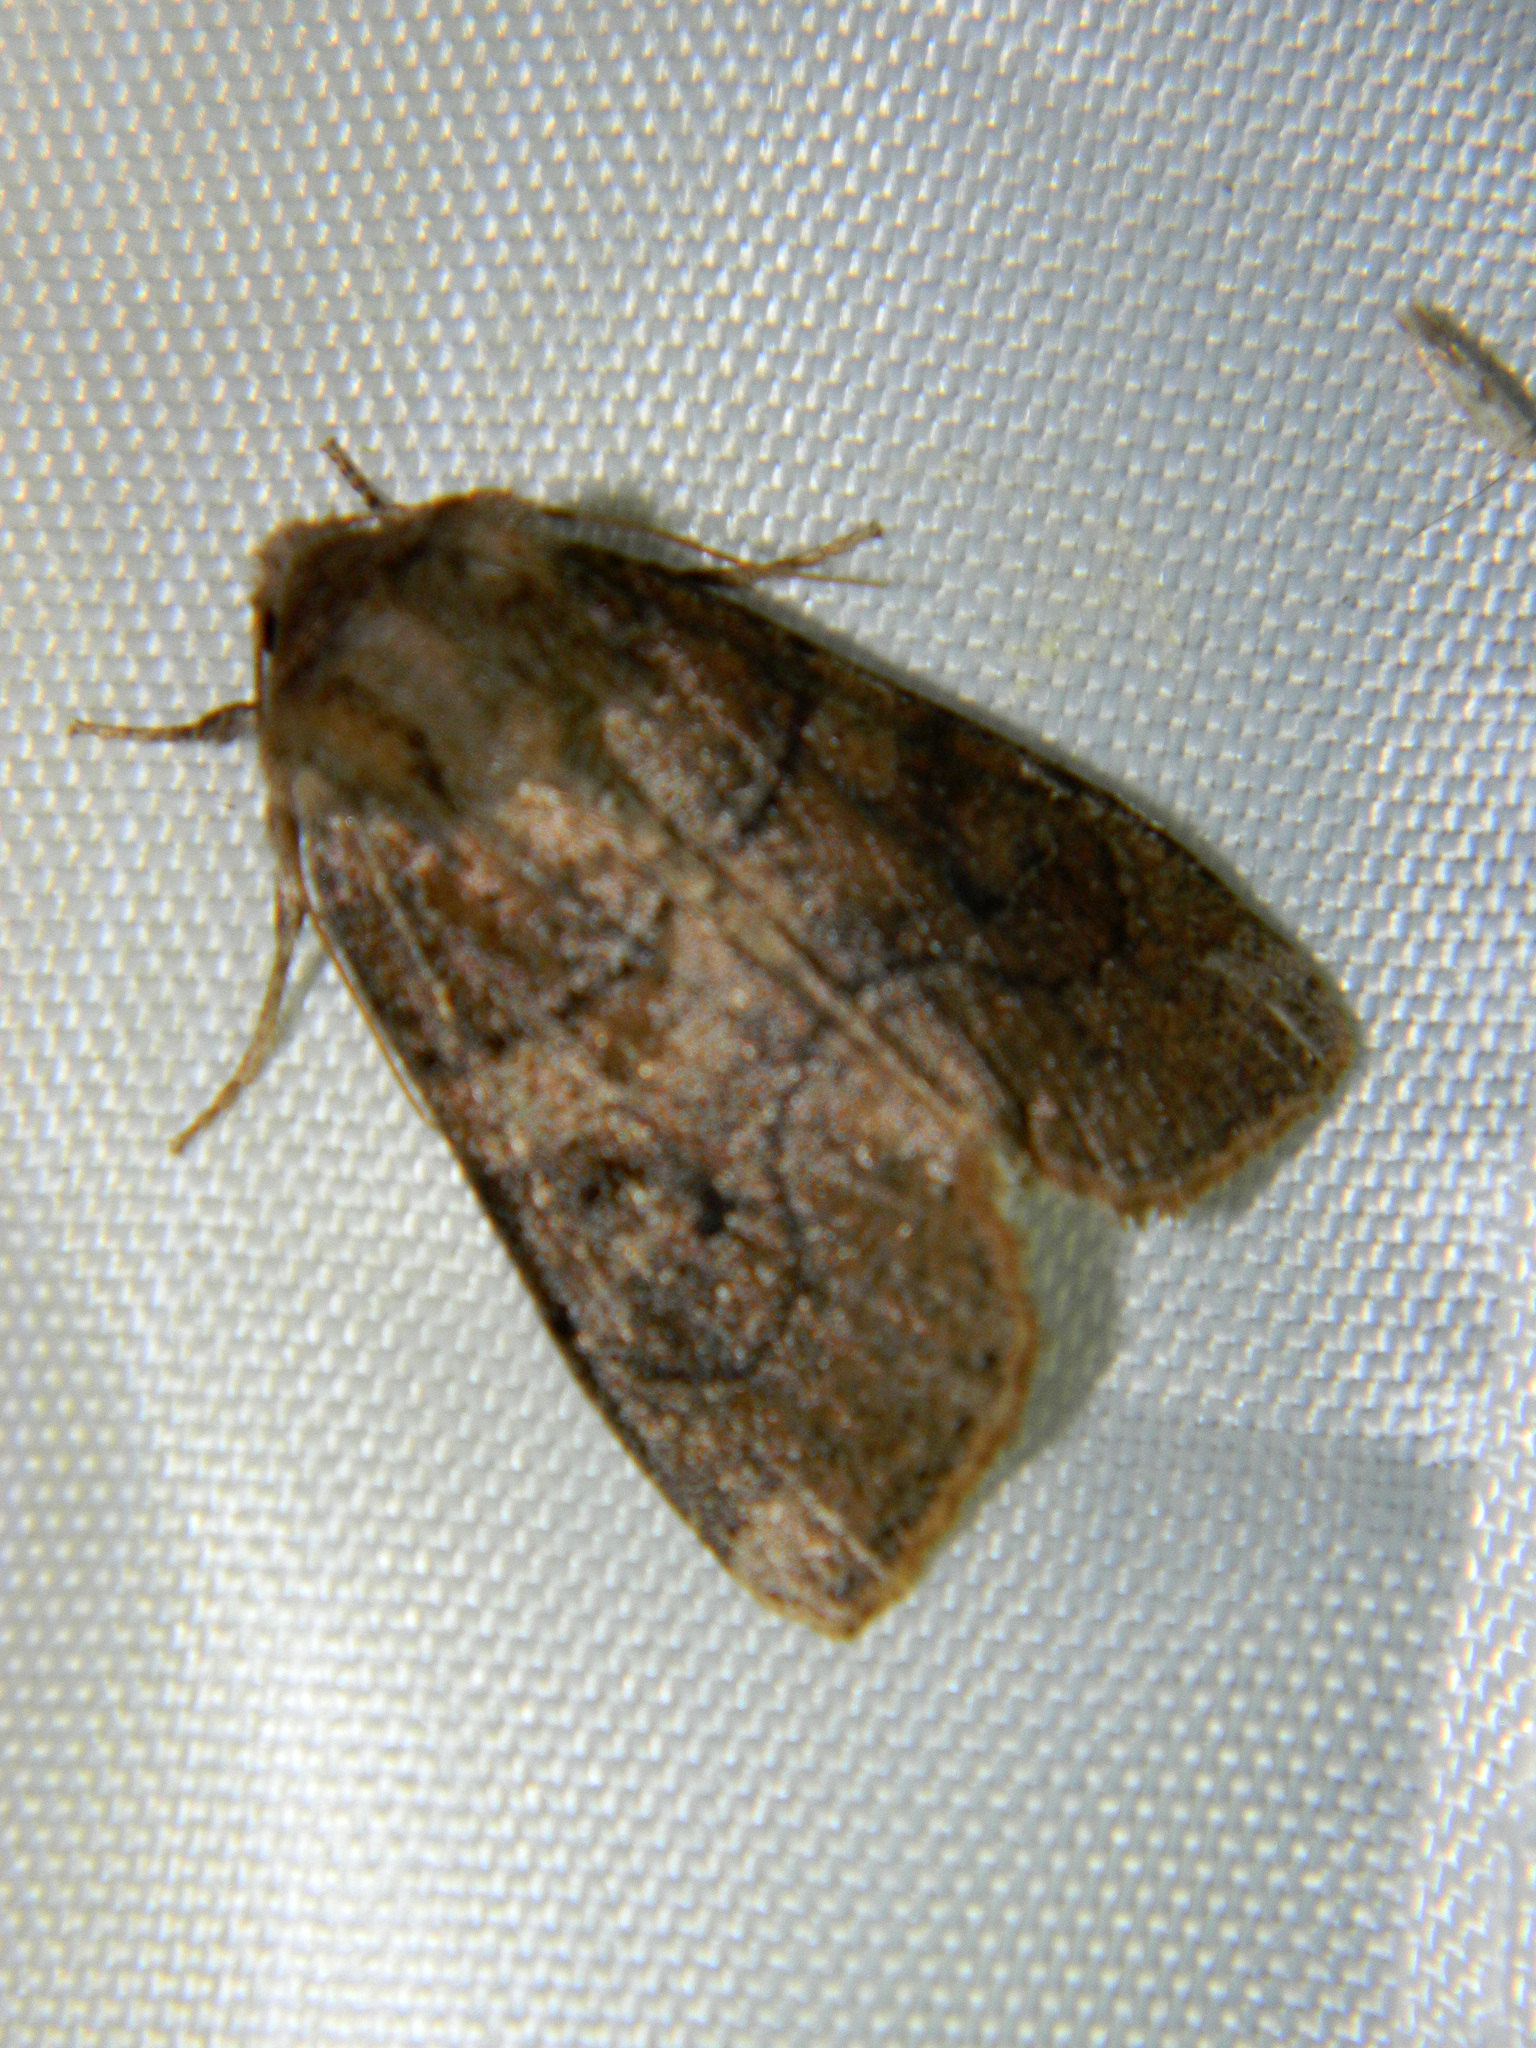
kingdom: Animalia
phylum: Arthropoda
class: Insecta
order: Lepidoptera
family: Noctuidae
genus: Crocigrapha
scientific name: Crocigrapha normani
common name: Norman's quaker
